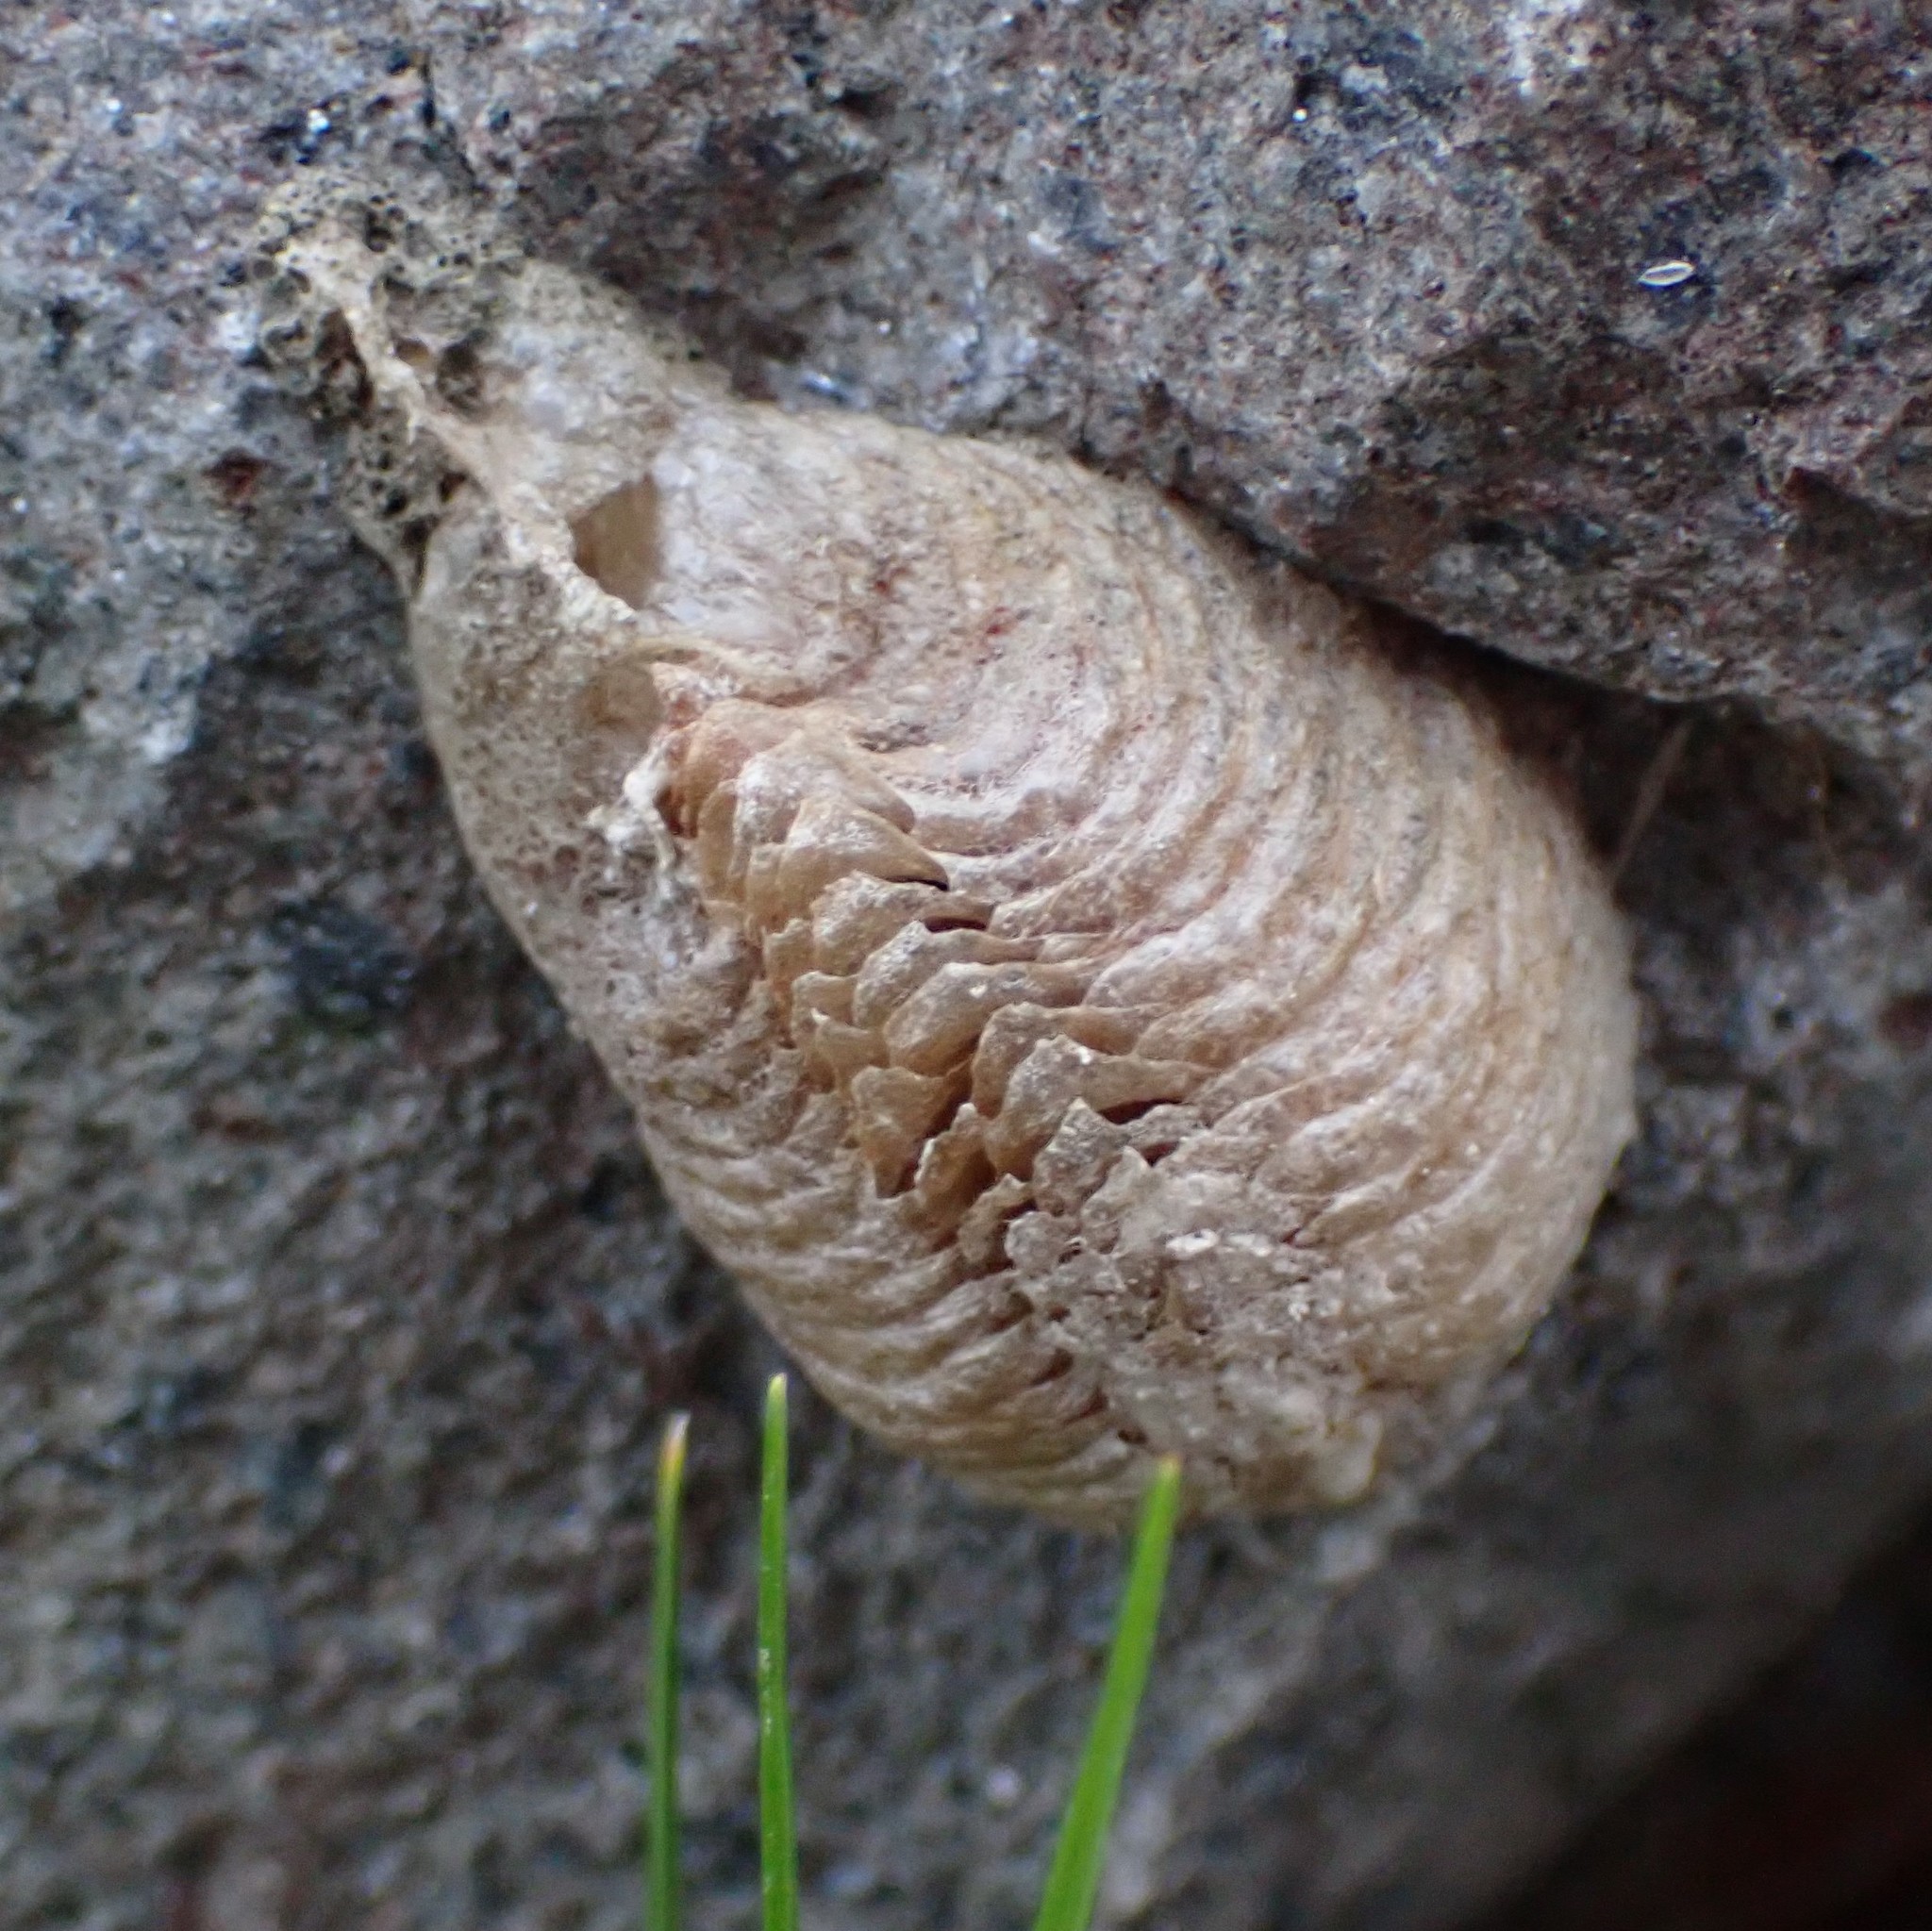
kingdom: Animalia
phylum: Arthropoda
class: Insecta
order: Mantodea
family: Mantidae
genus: Mantis
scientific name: Mantis religiosa
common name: Praying mantis
